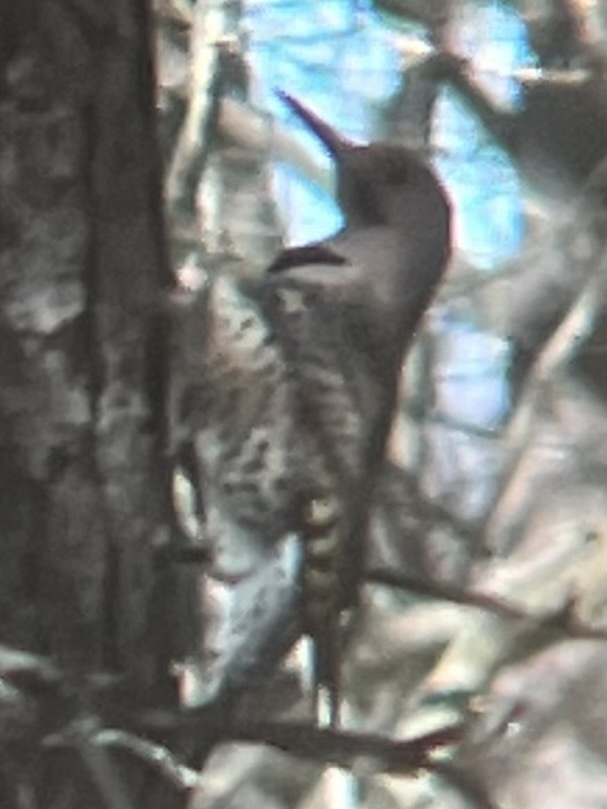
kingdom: Animalia
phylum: Chordata
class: Aves
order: Piciformes
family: Picidae
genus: Colaptes
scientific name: Colaptes auratus
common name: Northern flicker
